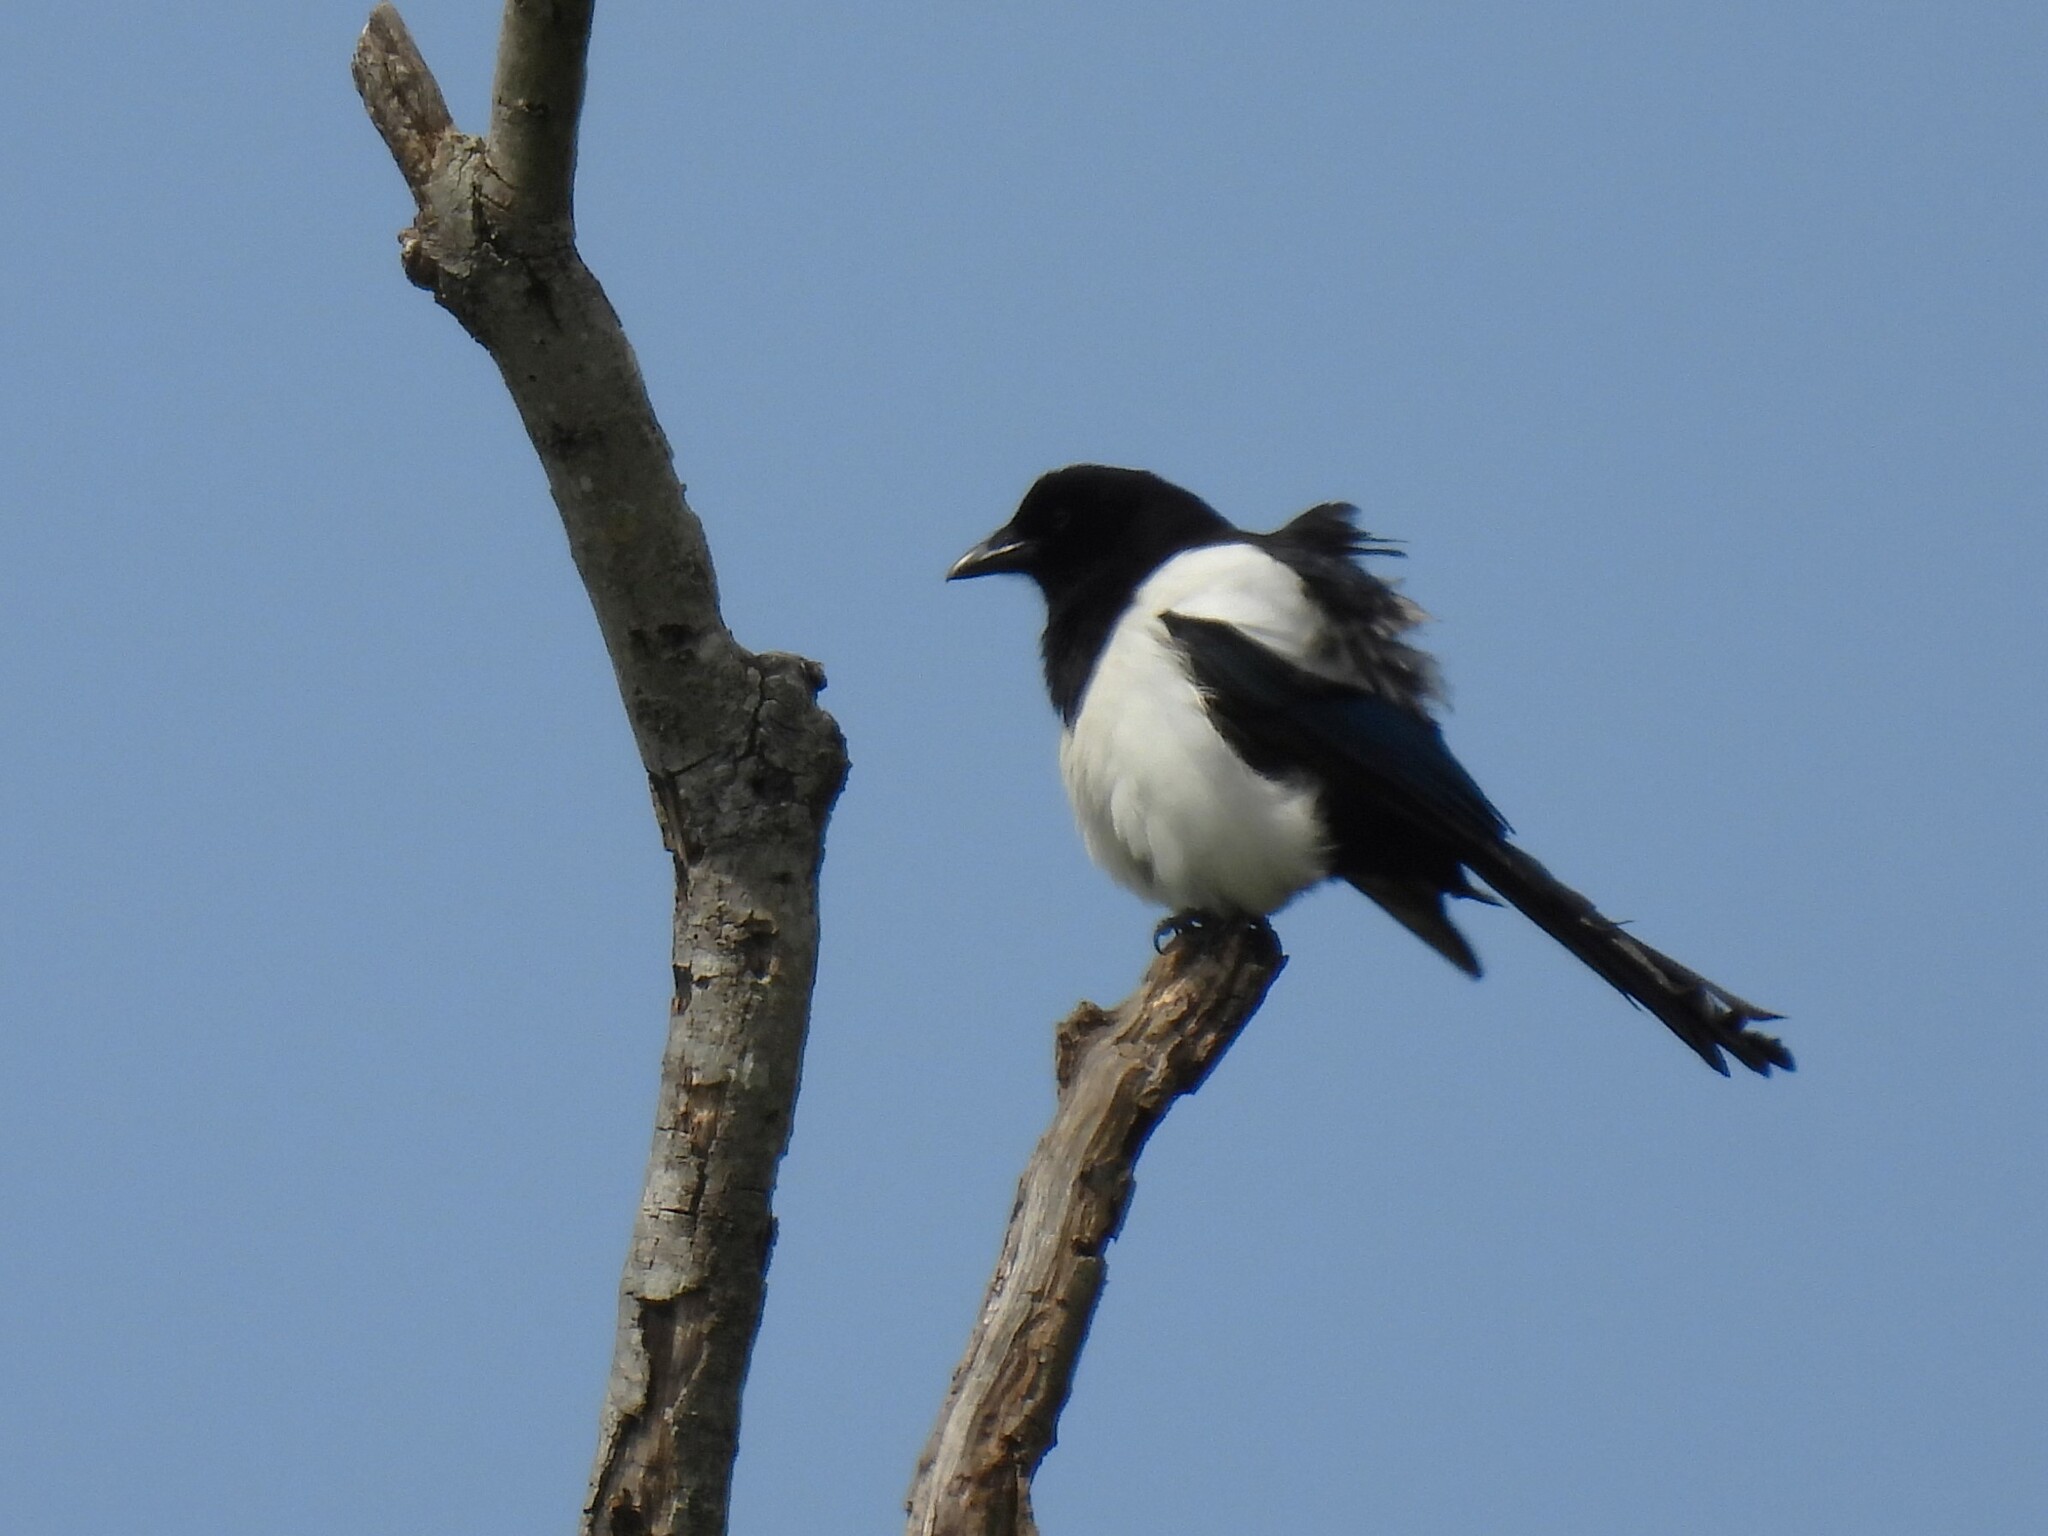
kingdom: Animalia
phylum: Chordata
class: Aves
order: Passeriformes
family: Corvidae
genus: Pica
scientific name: Pica pica
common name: Eurasian magpie
